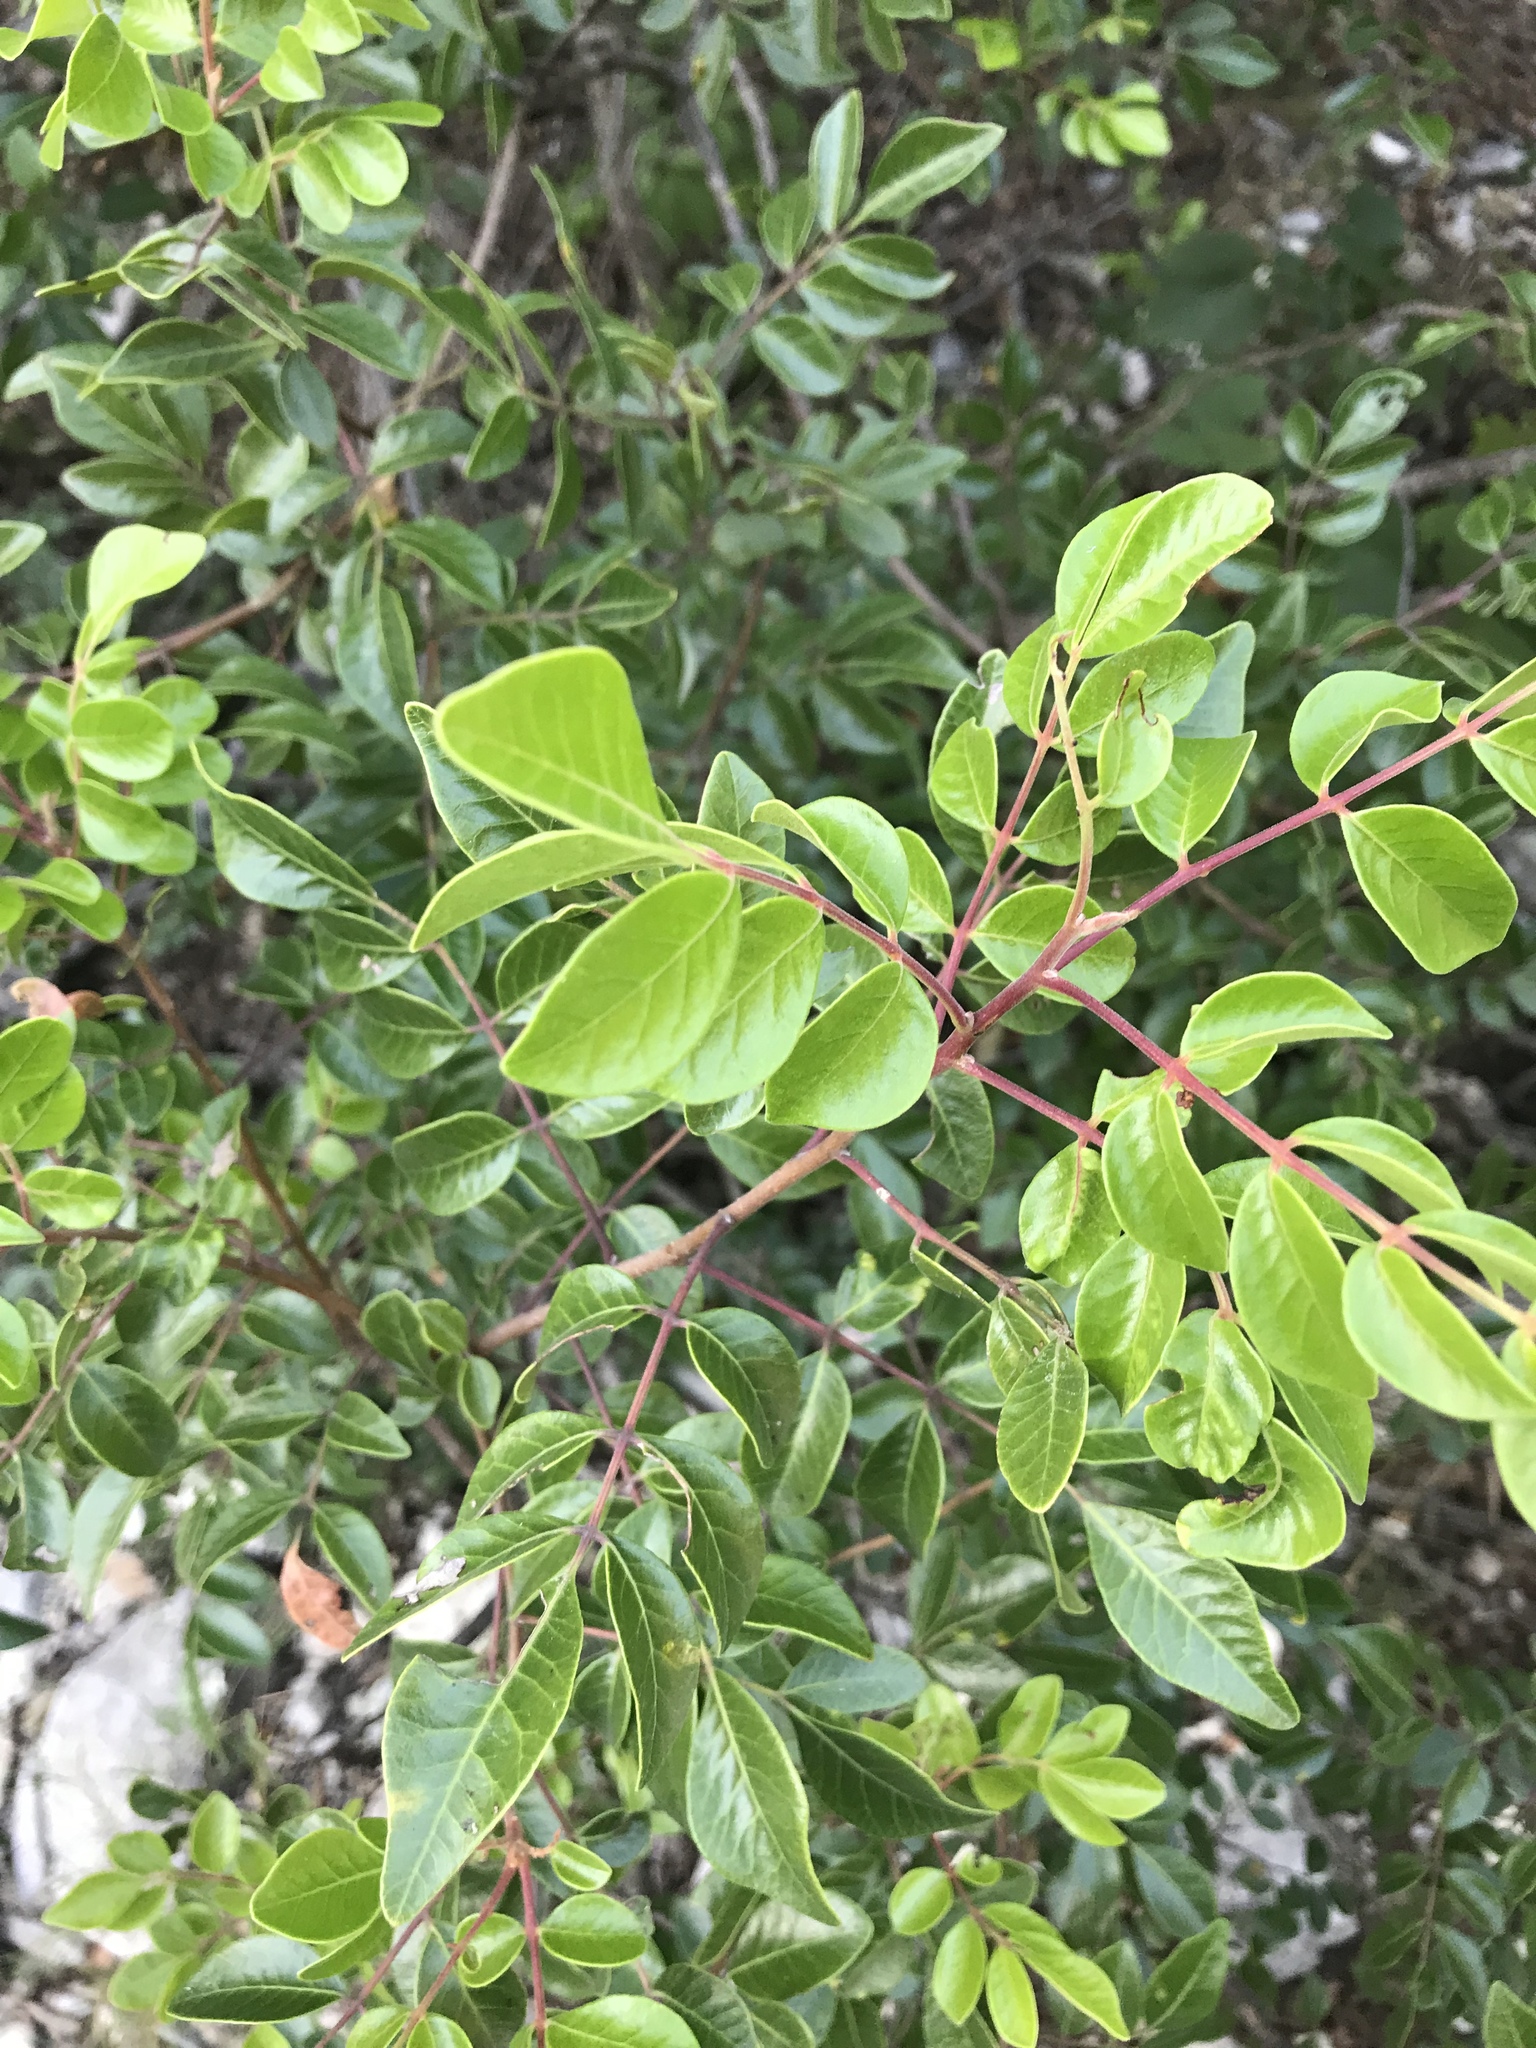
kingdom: Plantae
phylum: Tracheophyta
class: Magnoliopsida
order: Sapindales
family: Anacardiaceae
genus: Rhus
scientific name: Rhus virens
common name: Evergreen sumac
